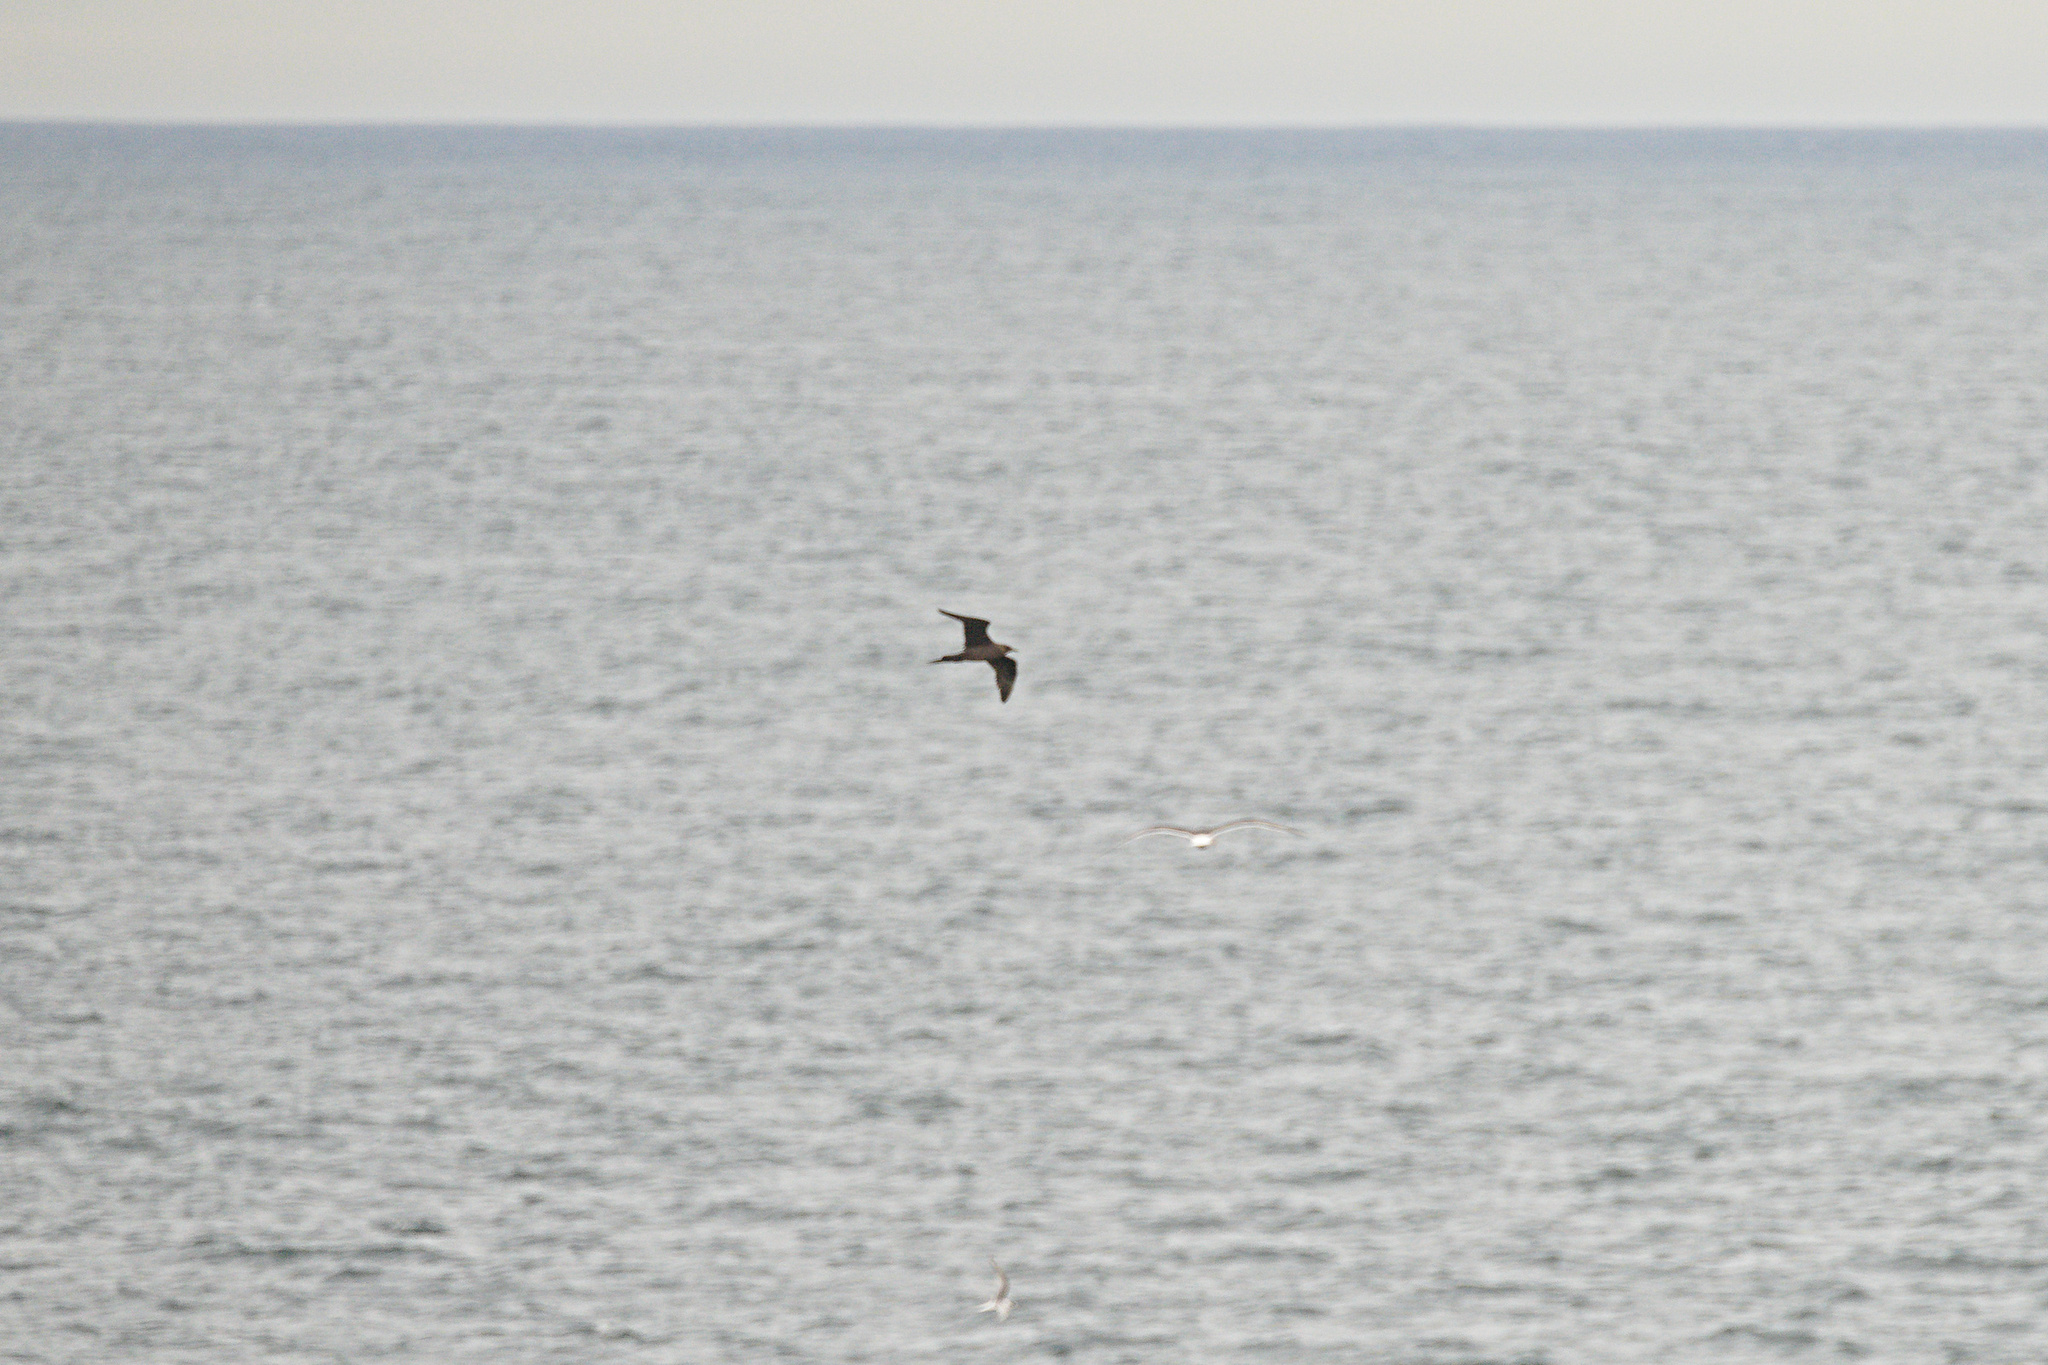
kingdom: Animalia
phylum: Chordata
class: Aves
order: Charadriiformes
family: Stercorariidae
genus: Stercorarius
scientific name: Stercorarius parasiticus
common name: Parasitic jaeger
